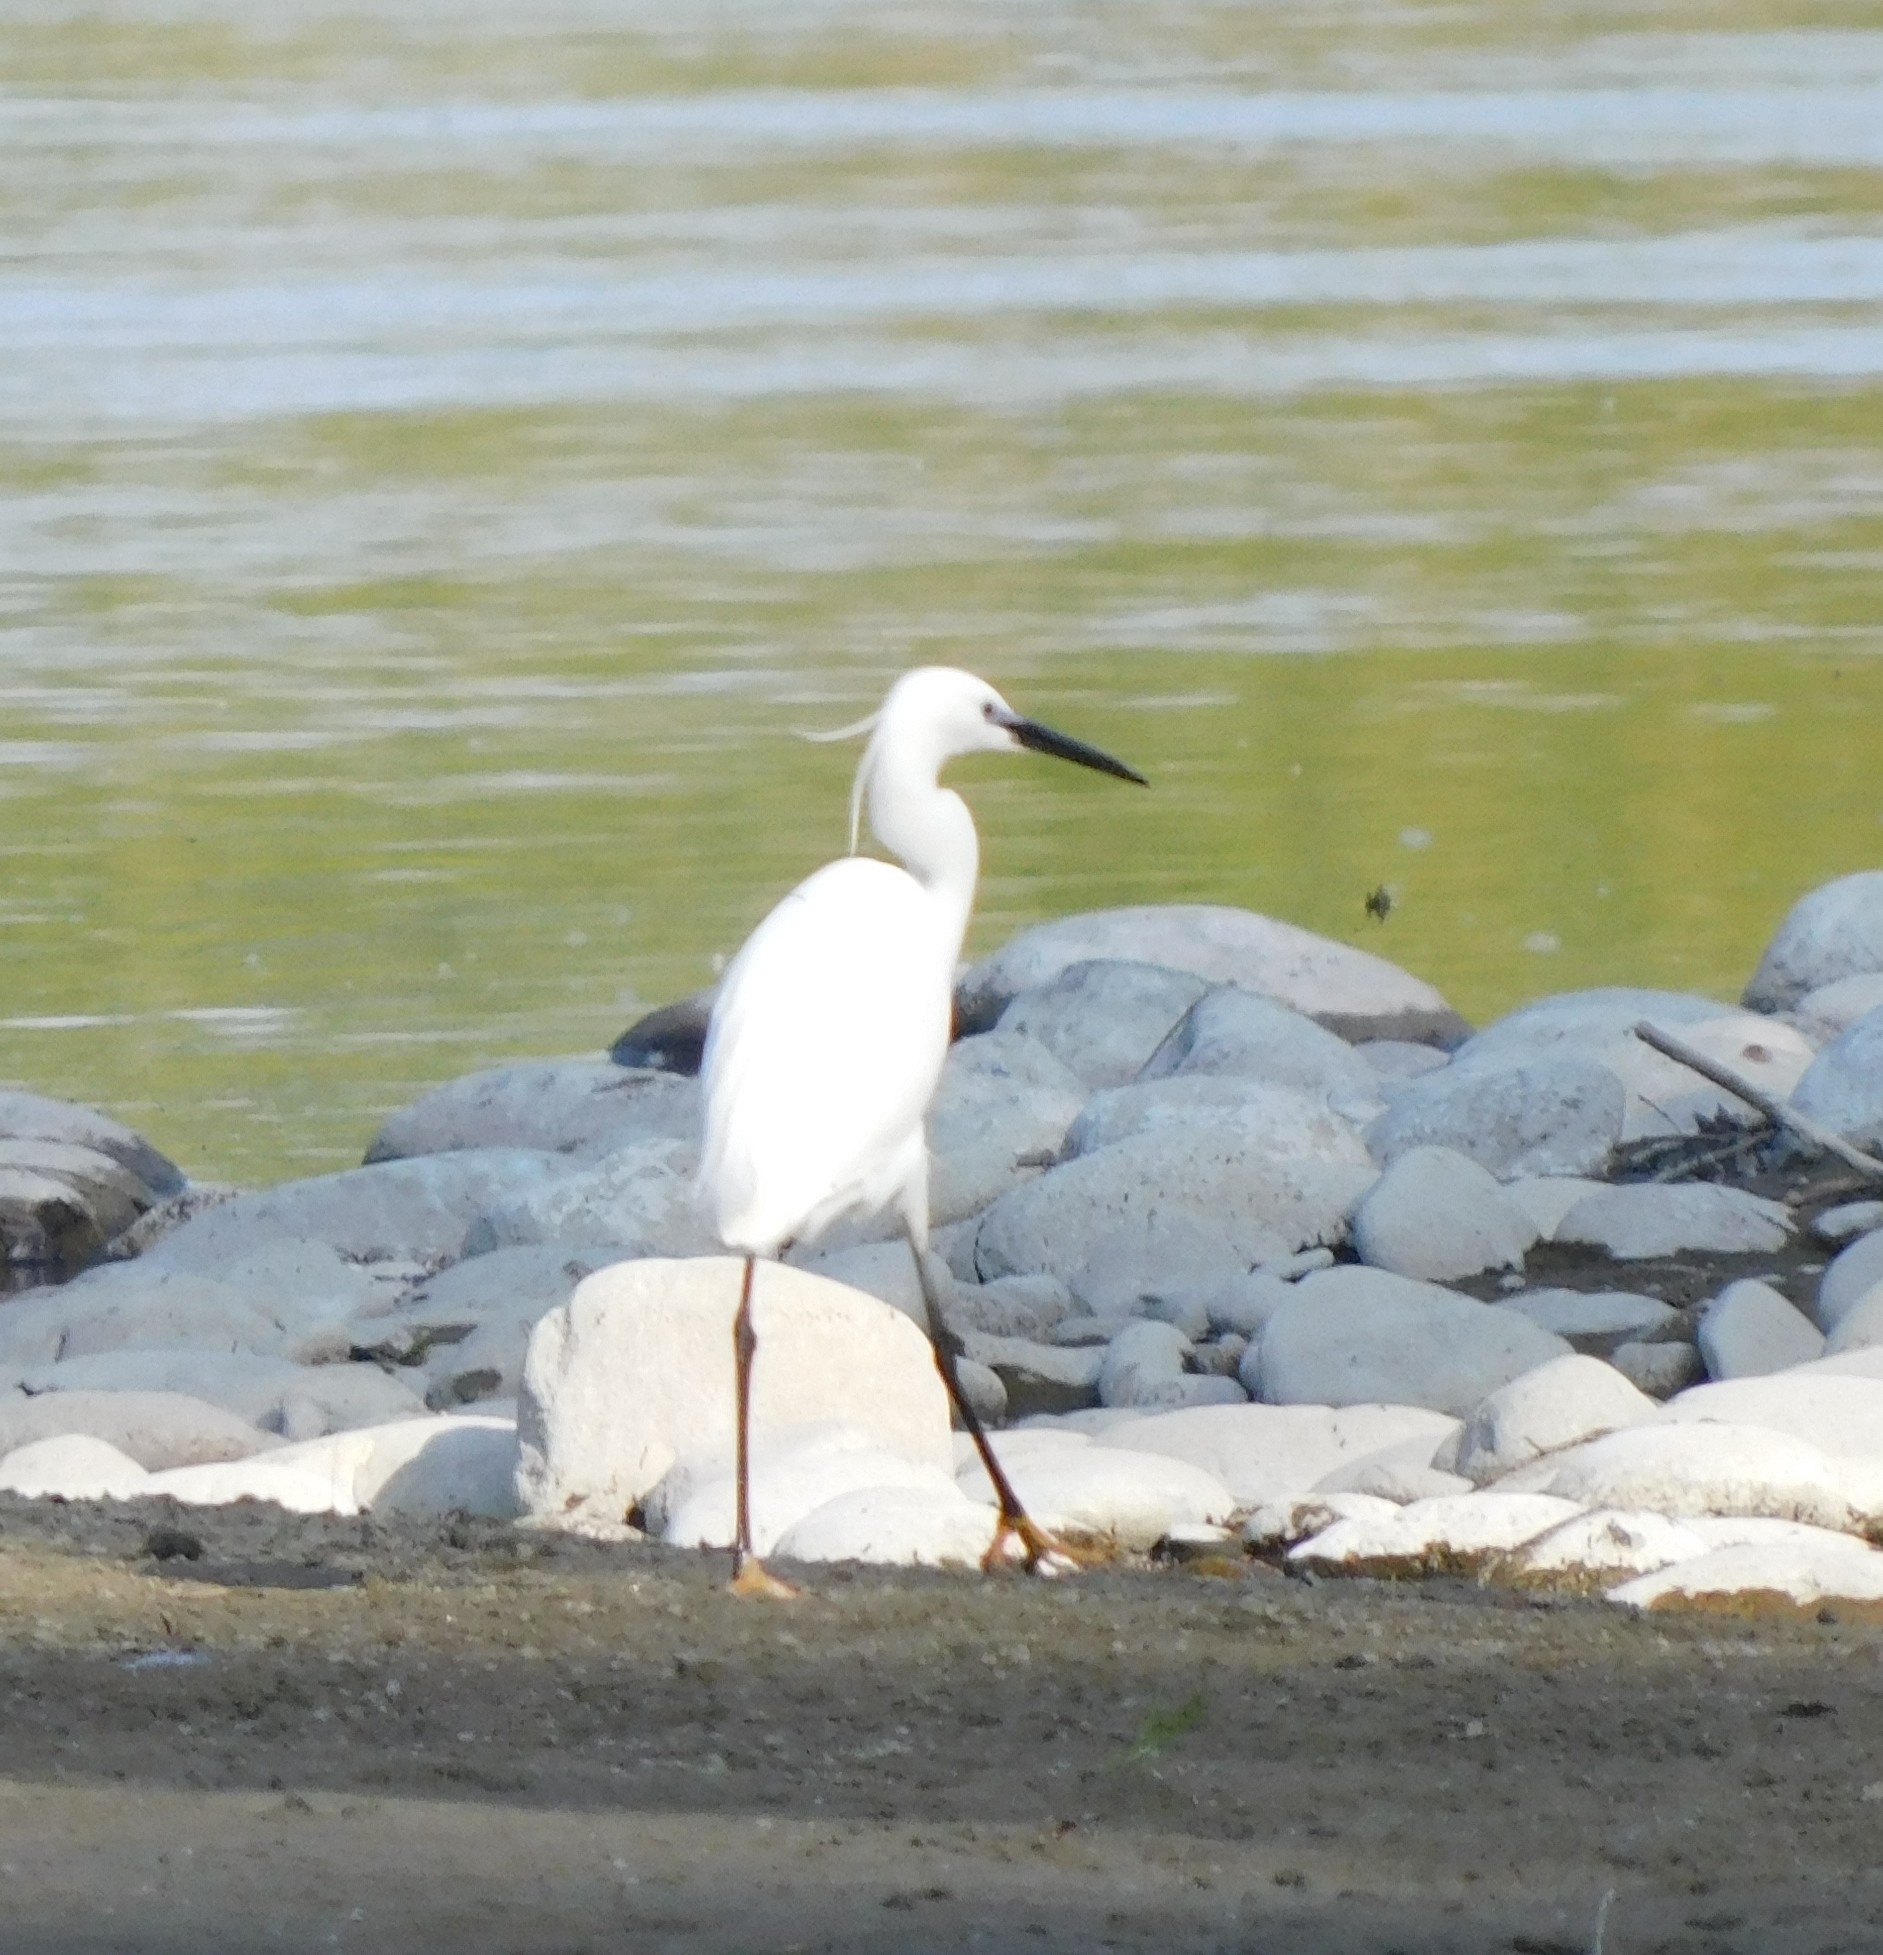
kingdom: Animalia
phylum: Chordata
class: Aves
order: Pelecaniformes
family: Ardeidae
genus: Egretta
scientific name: Egretta garzetta
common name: Little egret
